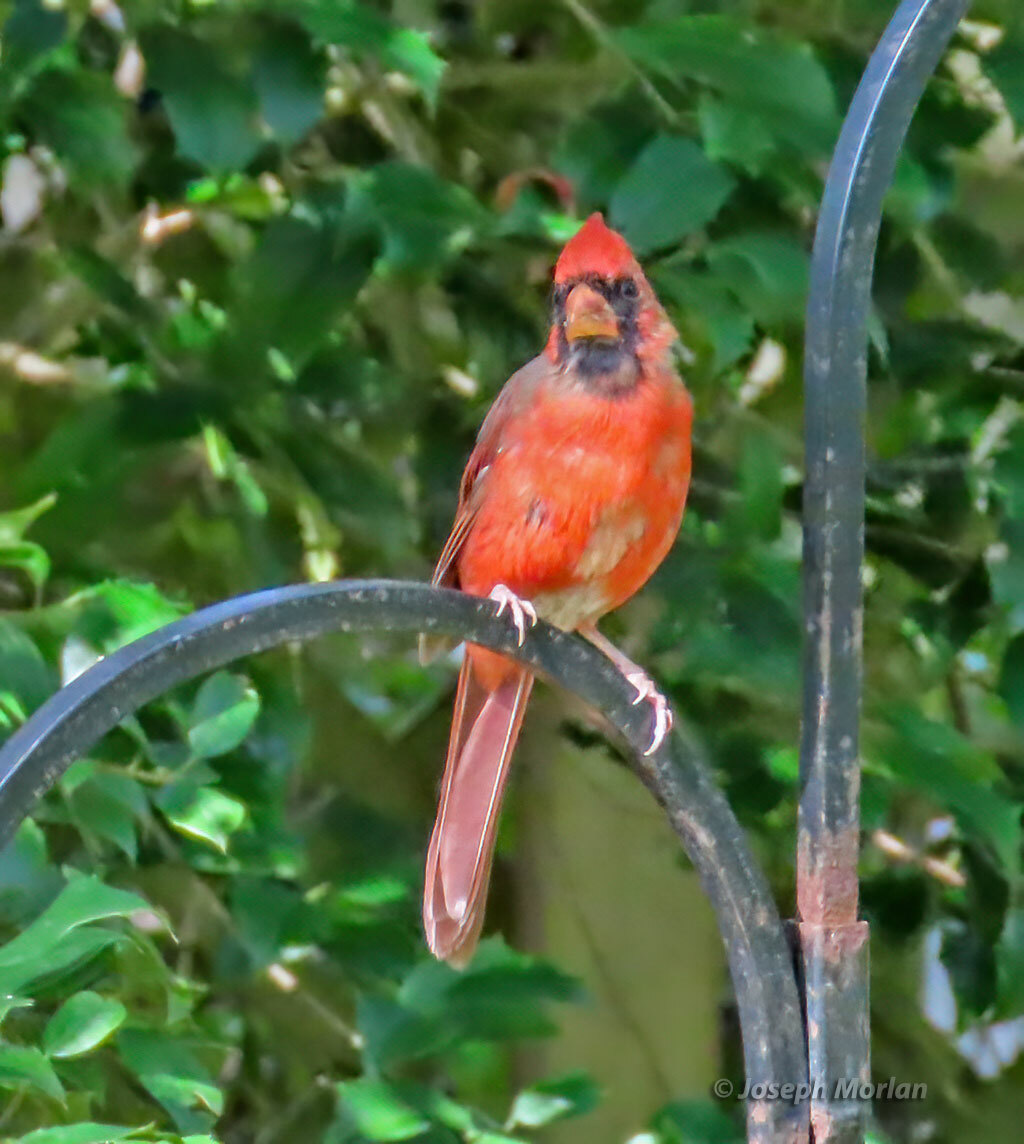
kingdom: Animalia
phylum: Chordata
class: Aves
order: Passeriformes
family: Cardinalidae
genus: Cardinalis
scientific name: Cardinalis cardinalis
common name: Northern cardinal
